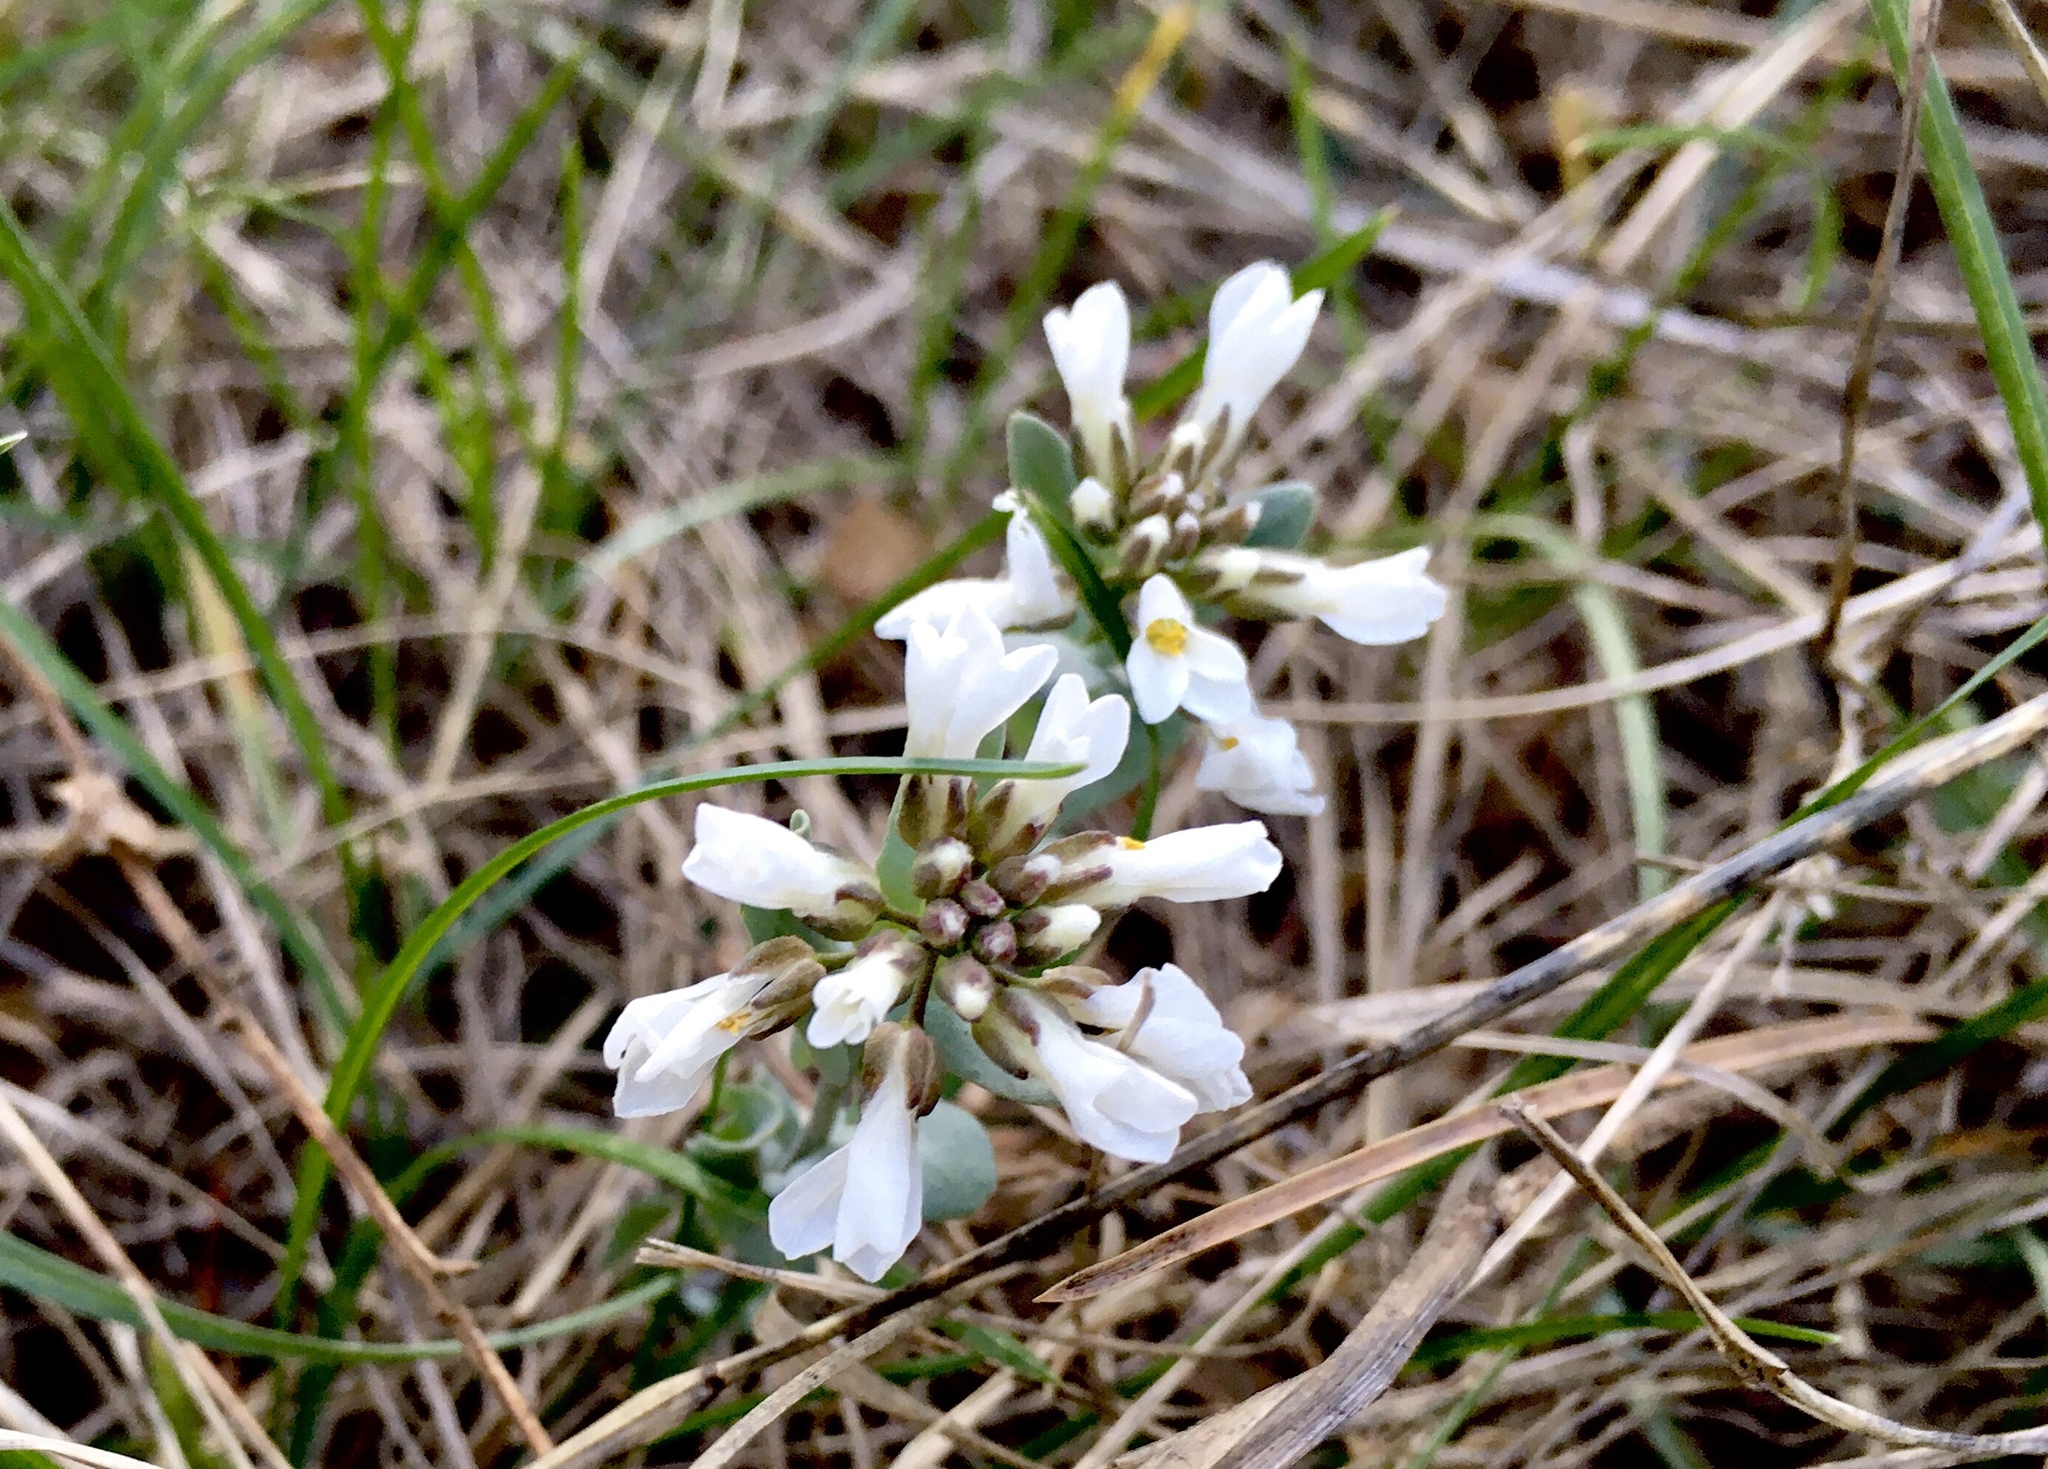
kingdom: Plantae
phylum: Tracheophyta
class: Magnoliopsida
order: Brassicales
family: Brassicaceae
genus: Noccaea
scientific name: Noccaea fendleri
